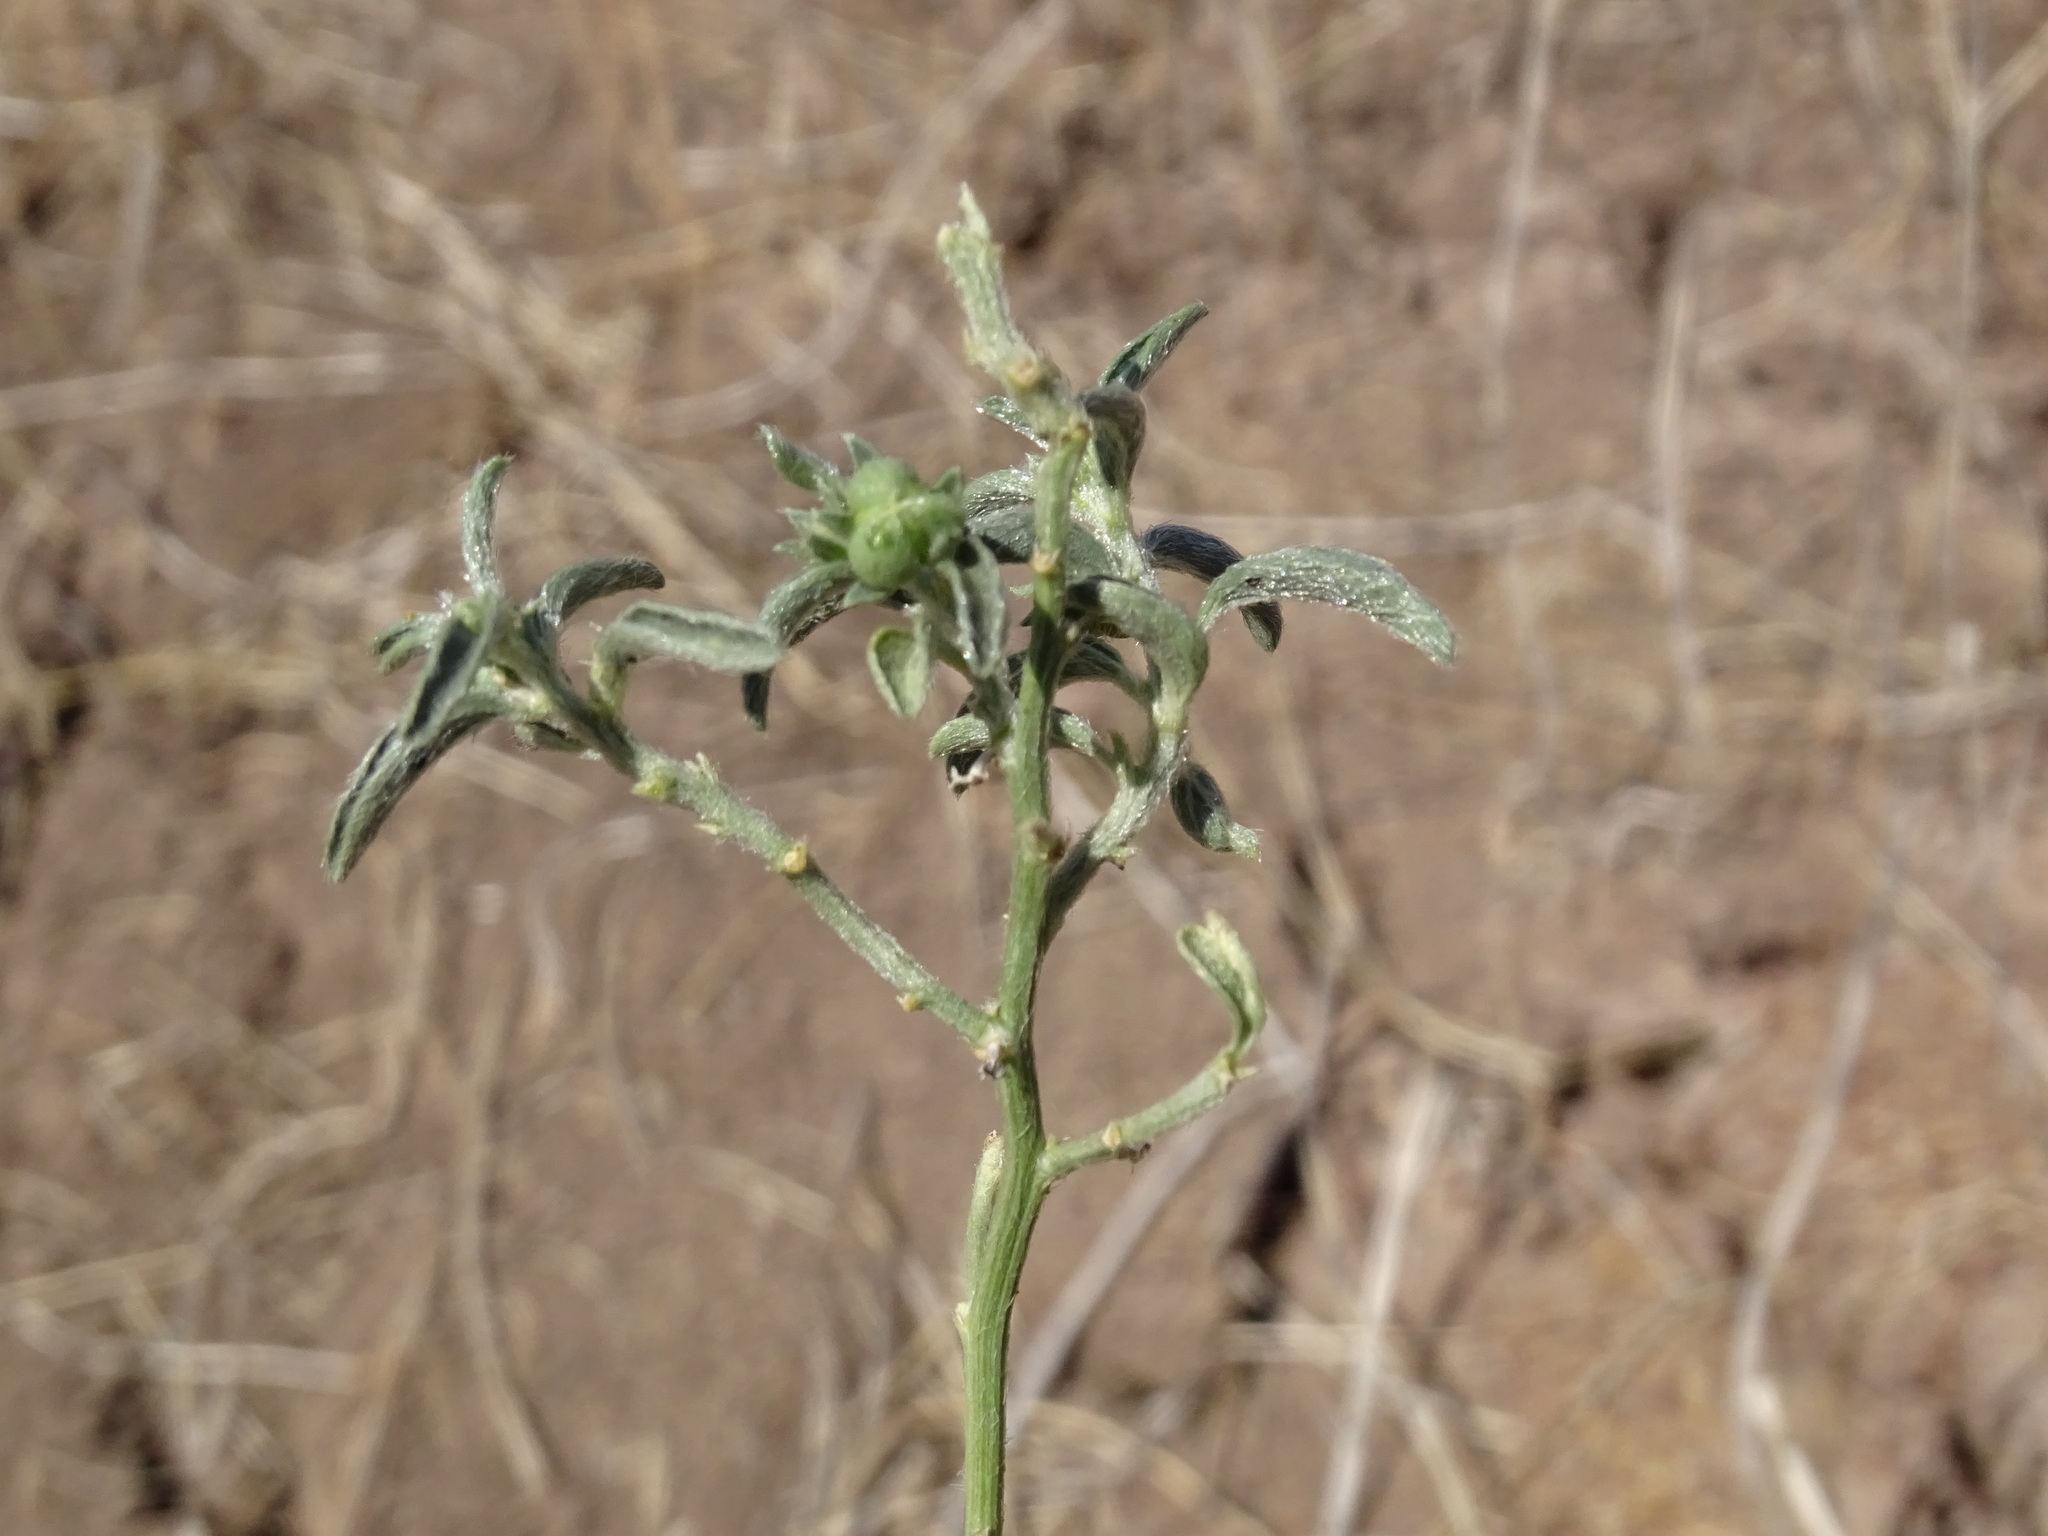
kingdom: Plantae
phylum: Tracheophyta
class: Magnoliopsida
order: Malpighiales
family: Euphorbiaceae
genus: Ditaxis
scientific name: Ditaxis humilis
